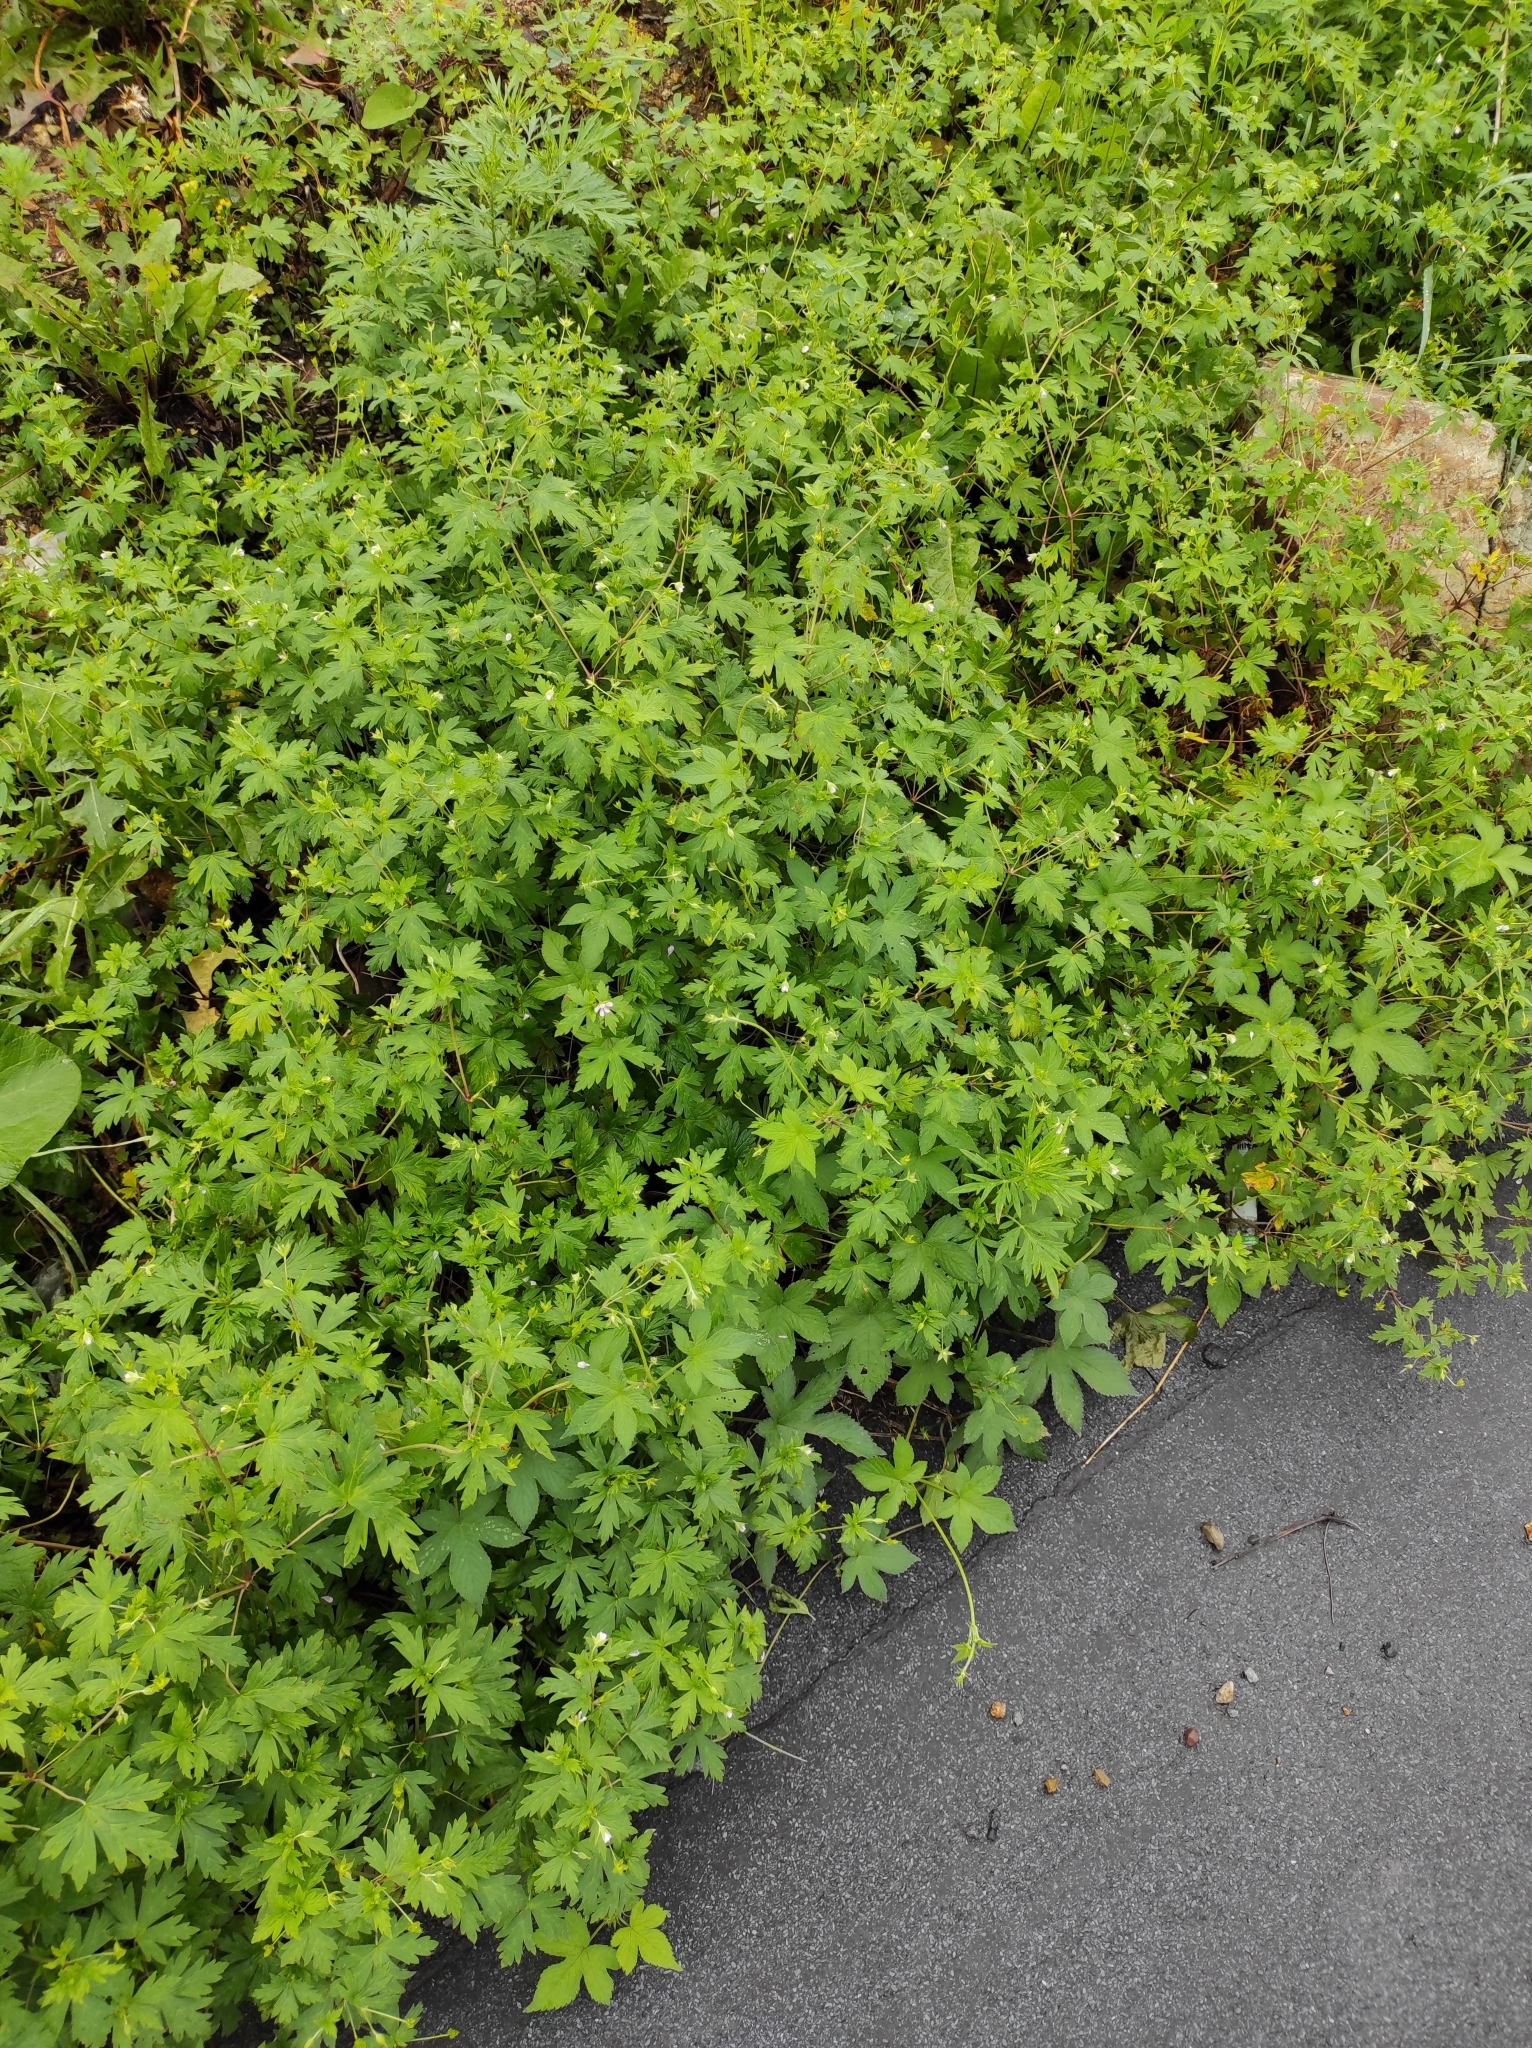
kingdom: Plantae
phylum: Tracheophyta
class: Magnoliopsida
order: Geraniales
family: Geraniaceae
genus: Geranium
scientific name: Geranium sibiricum
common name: Siberian crane's-bill
